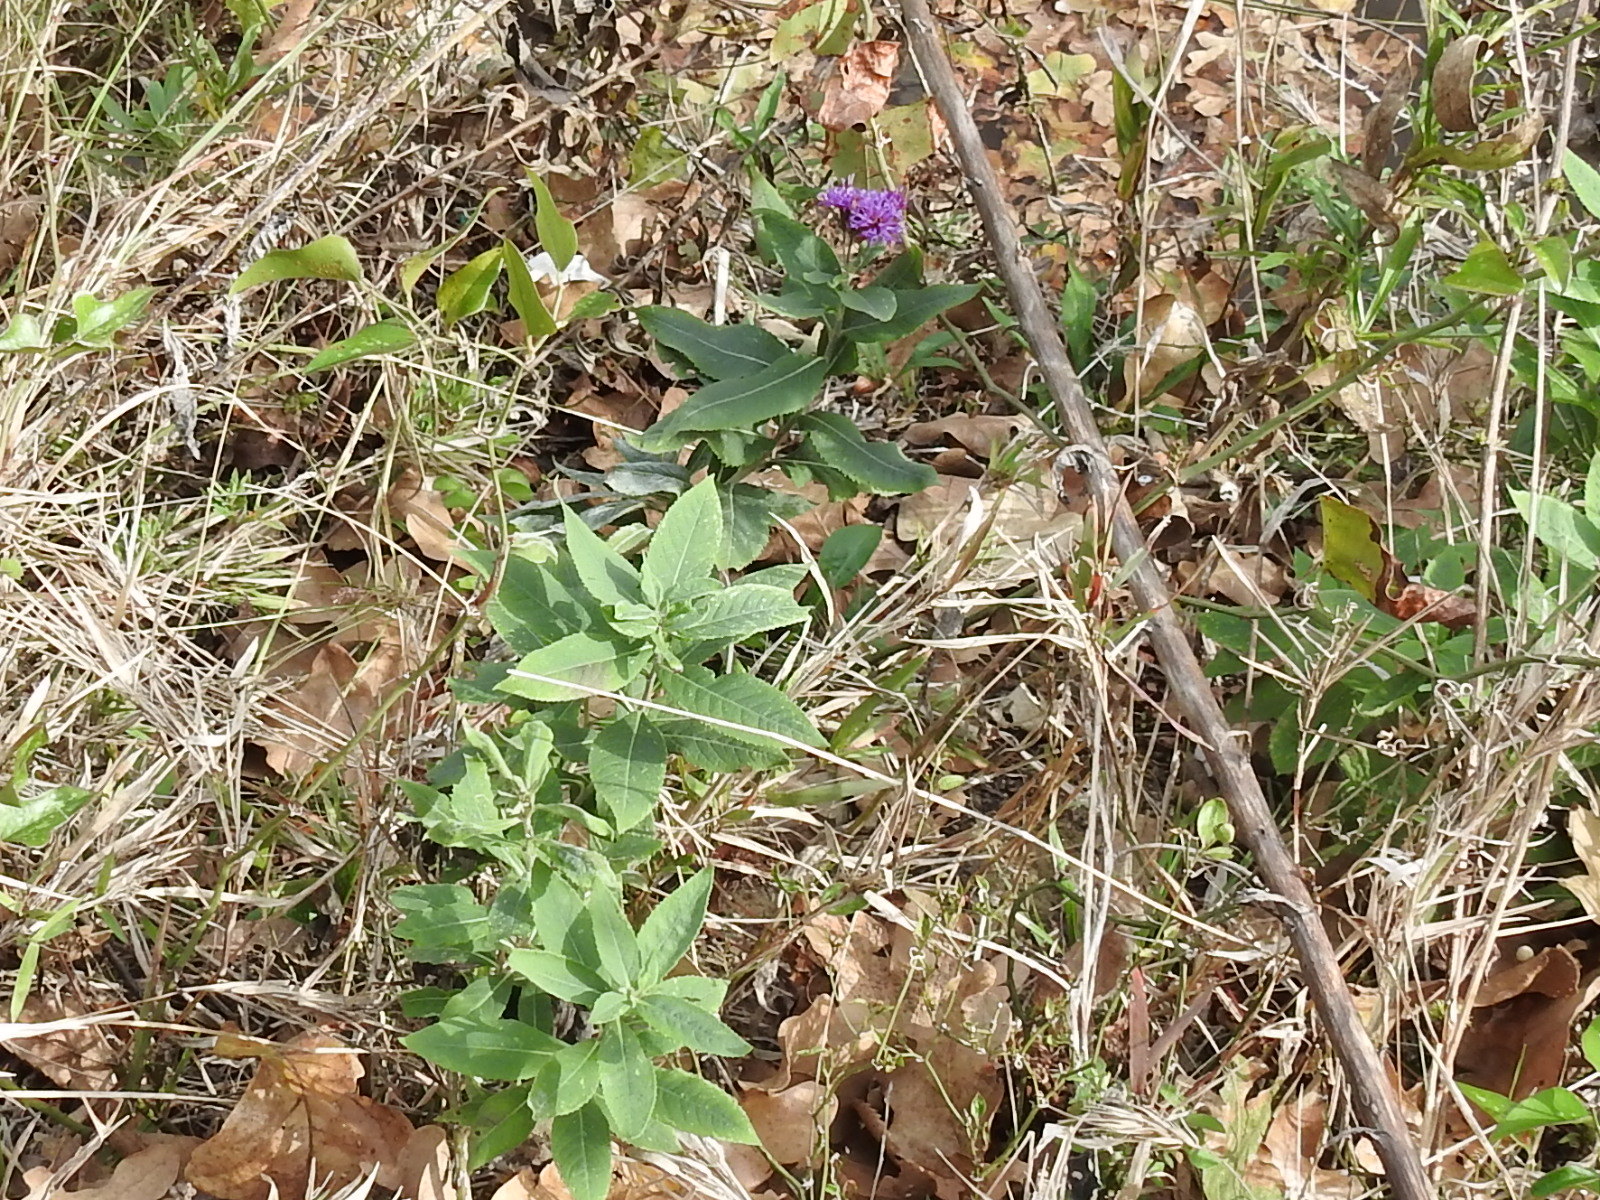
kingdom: Plantae
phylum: Tracheophyta
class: Magnoliopsida
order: Asterales
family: Asteraceae
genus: Vernonia
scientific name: Vernonia baldwinii
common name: Western ironweed
